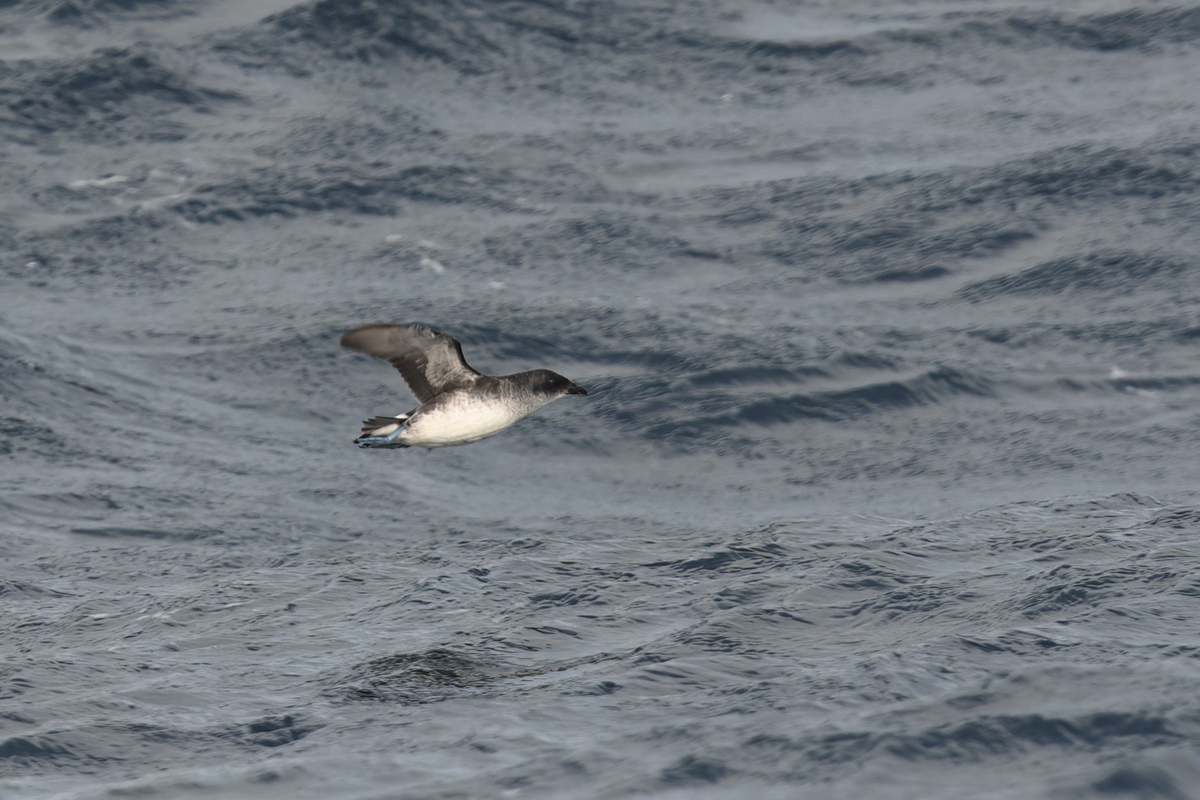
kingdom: Animalia
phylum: Chordata
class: Aves
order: Procellariiformes
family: Pelecanoididae
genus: Pelecanoides
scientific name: Pelecanoides urinatrix
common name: Common diving-petrel
